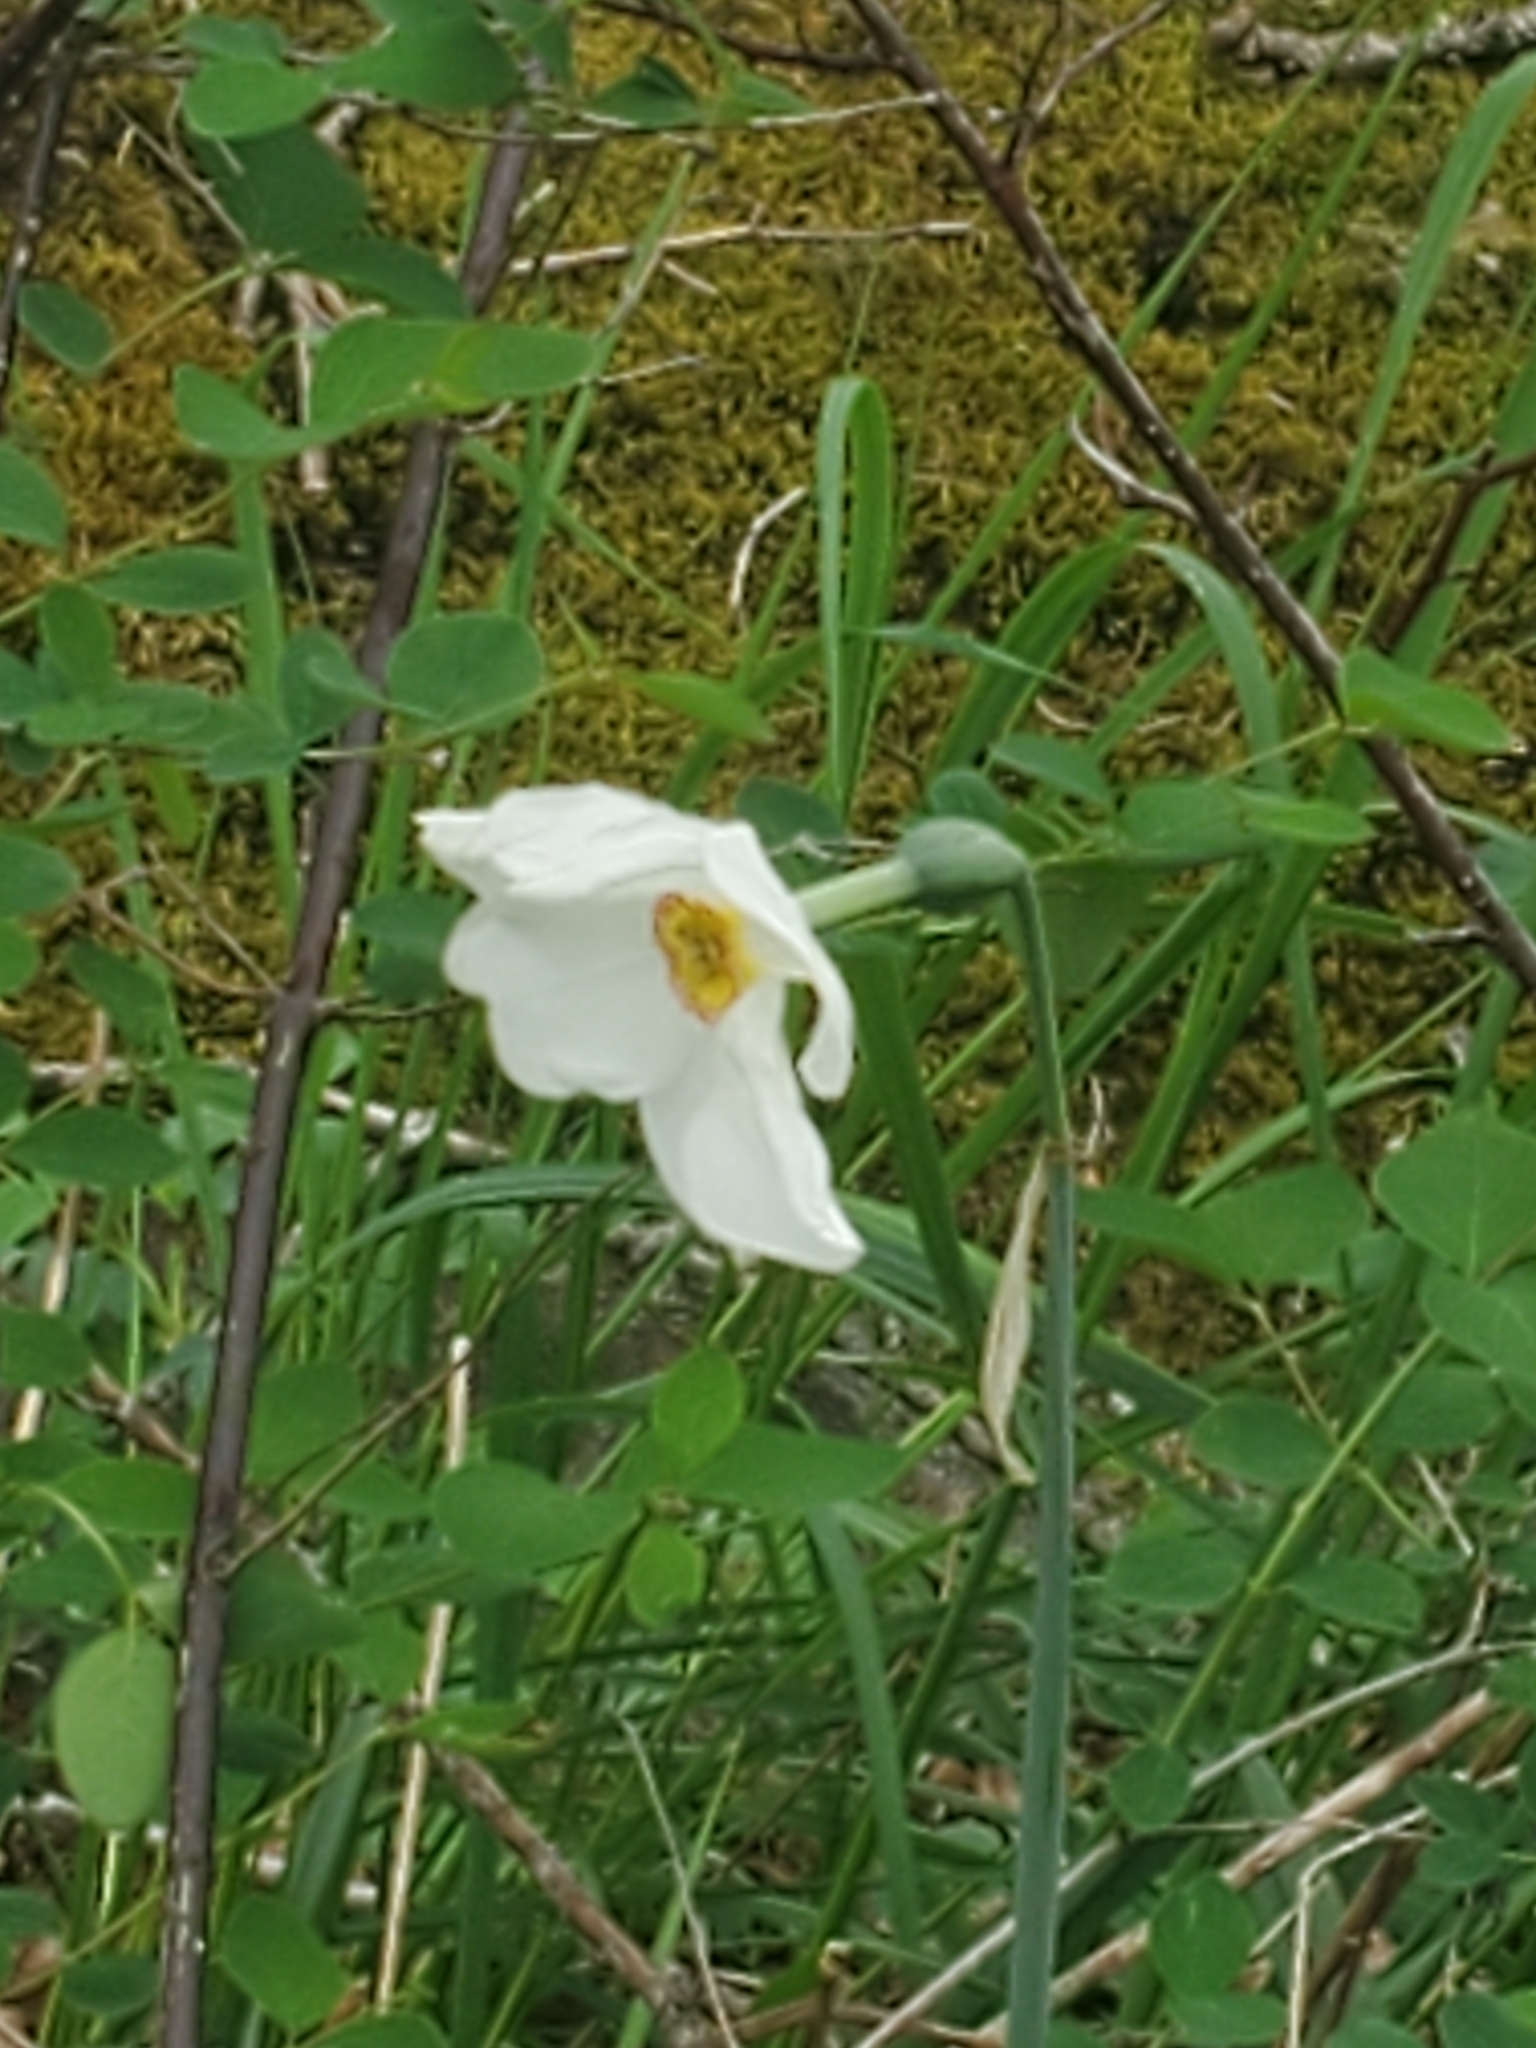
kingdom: Plantae
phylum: Tracheophyta
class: Liliopsida
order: Asparagales
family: Amaryllidaceae
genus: Narcissus
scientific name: Narcissus poeticus
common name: Pheasant's-eye daffodil
